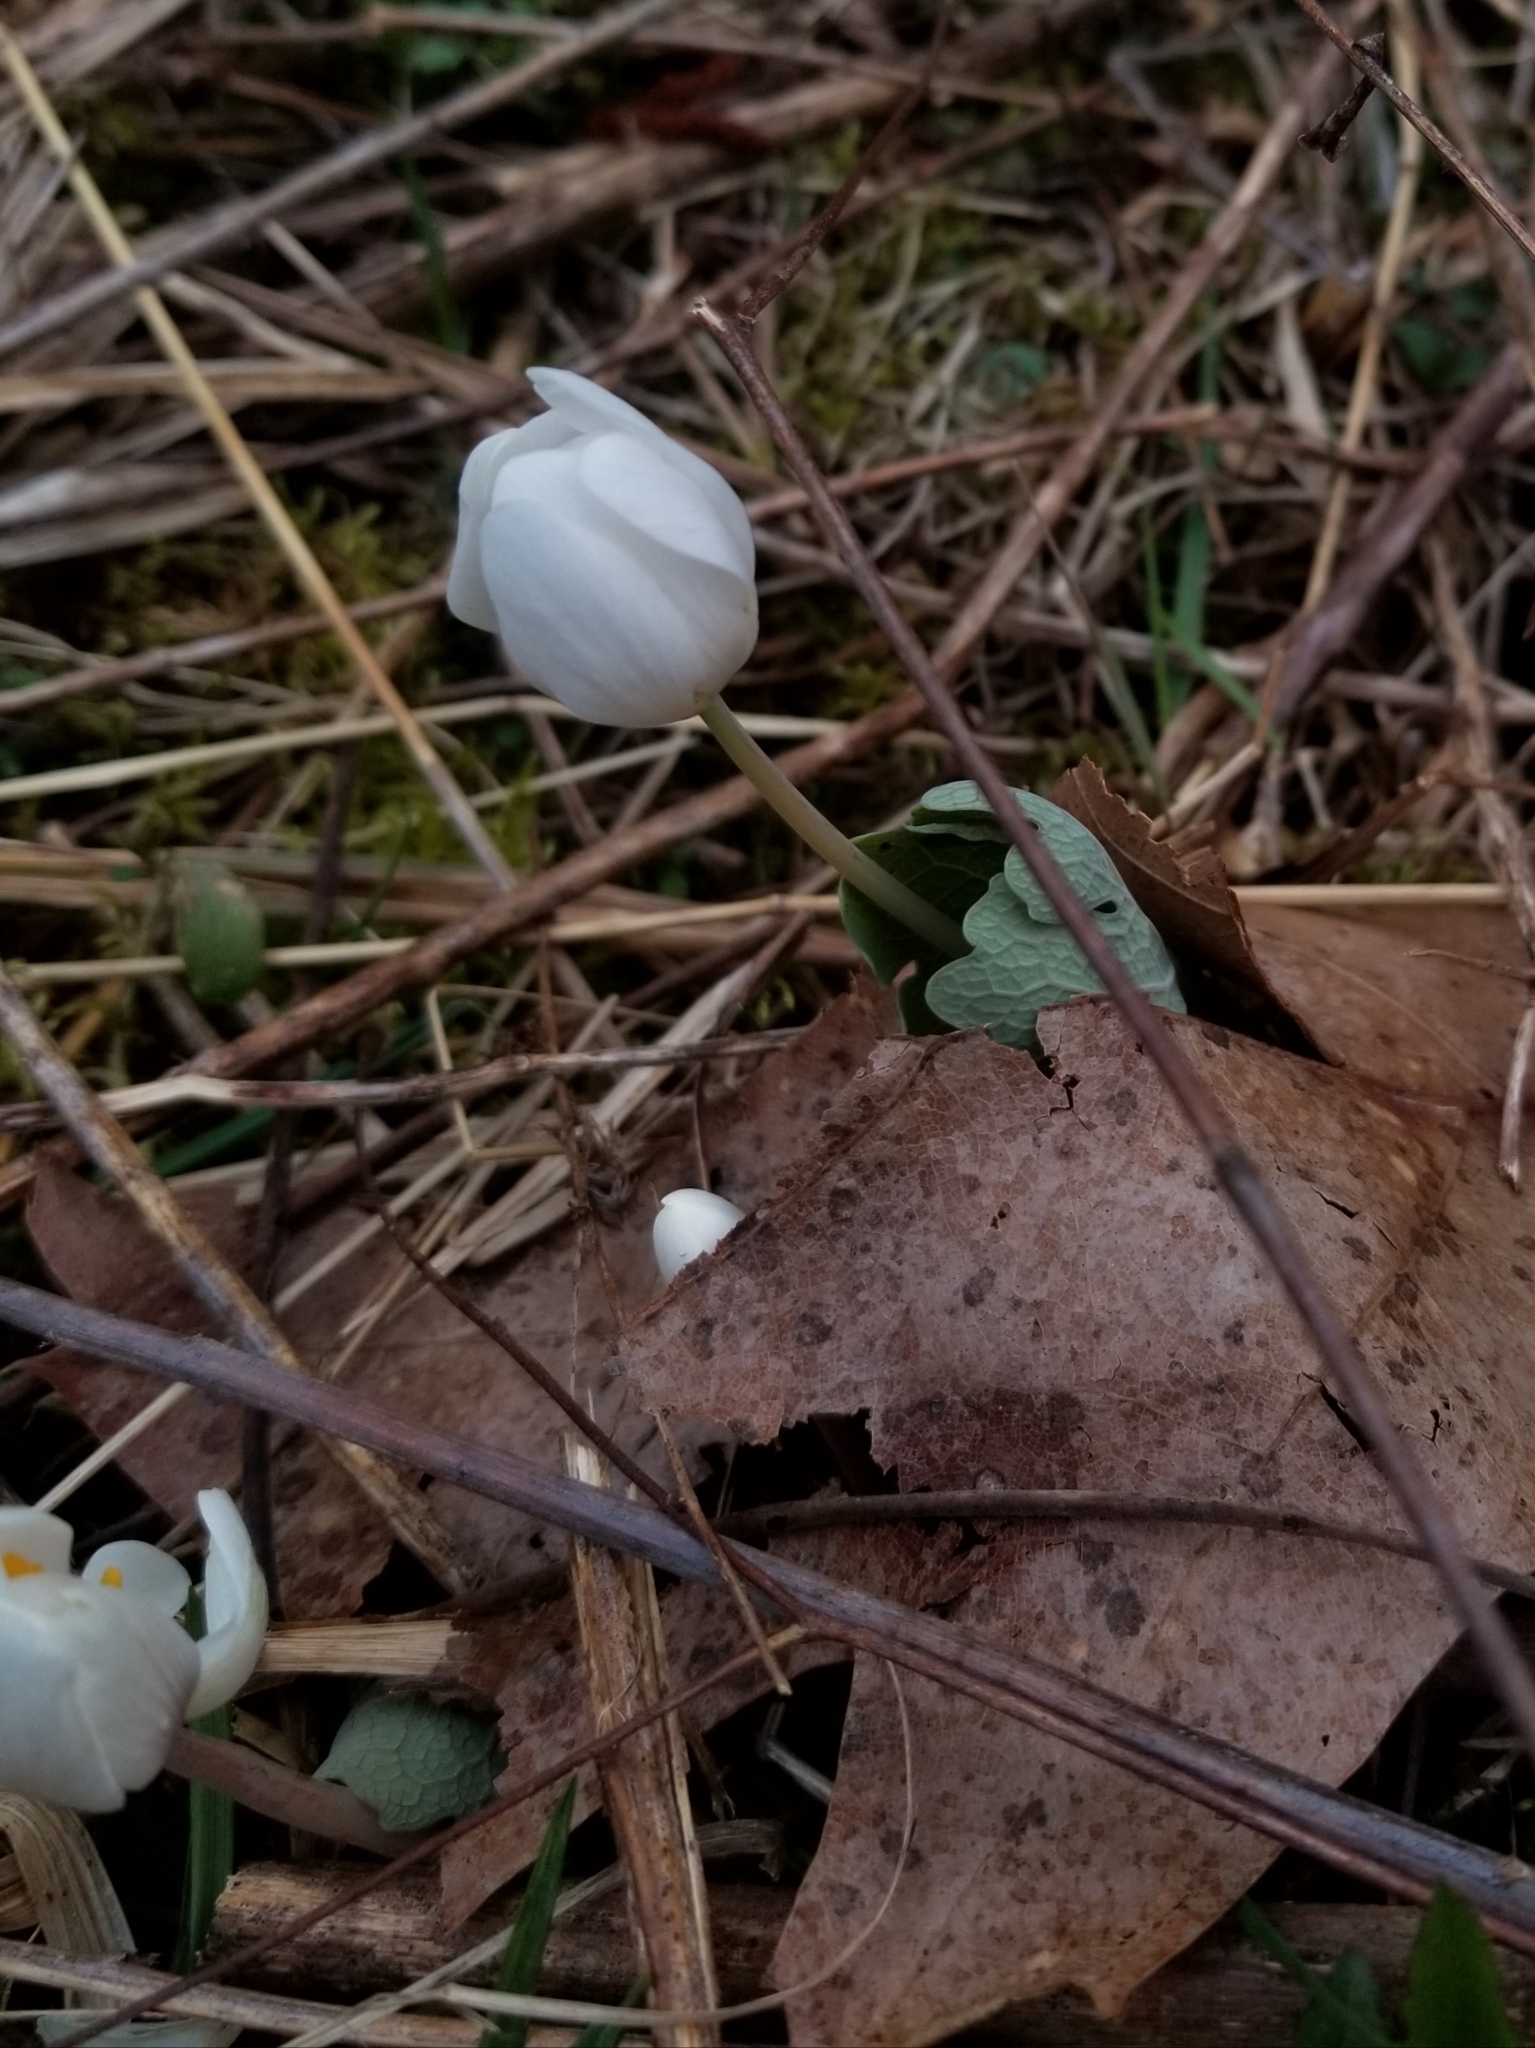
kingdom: Plantae
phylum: Tracheophyta
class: Magnoliopsida
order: Ranunculales
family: Papaveraceae
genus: Sanguinaria
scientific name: Sanguinaria canadensis
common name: Bloodroot
